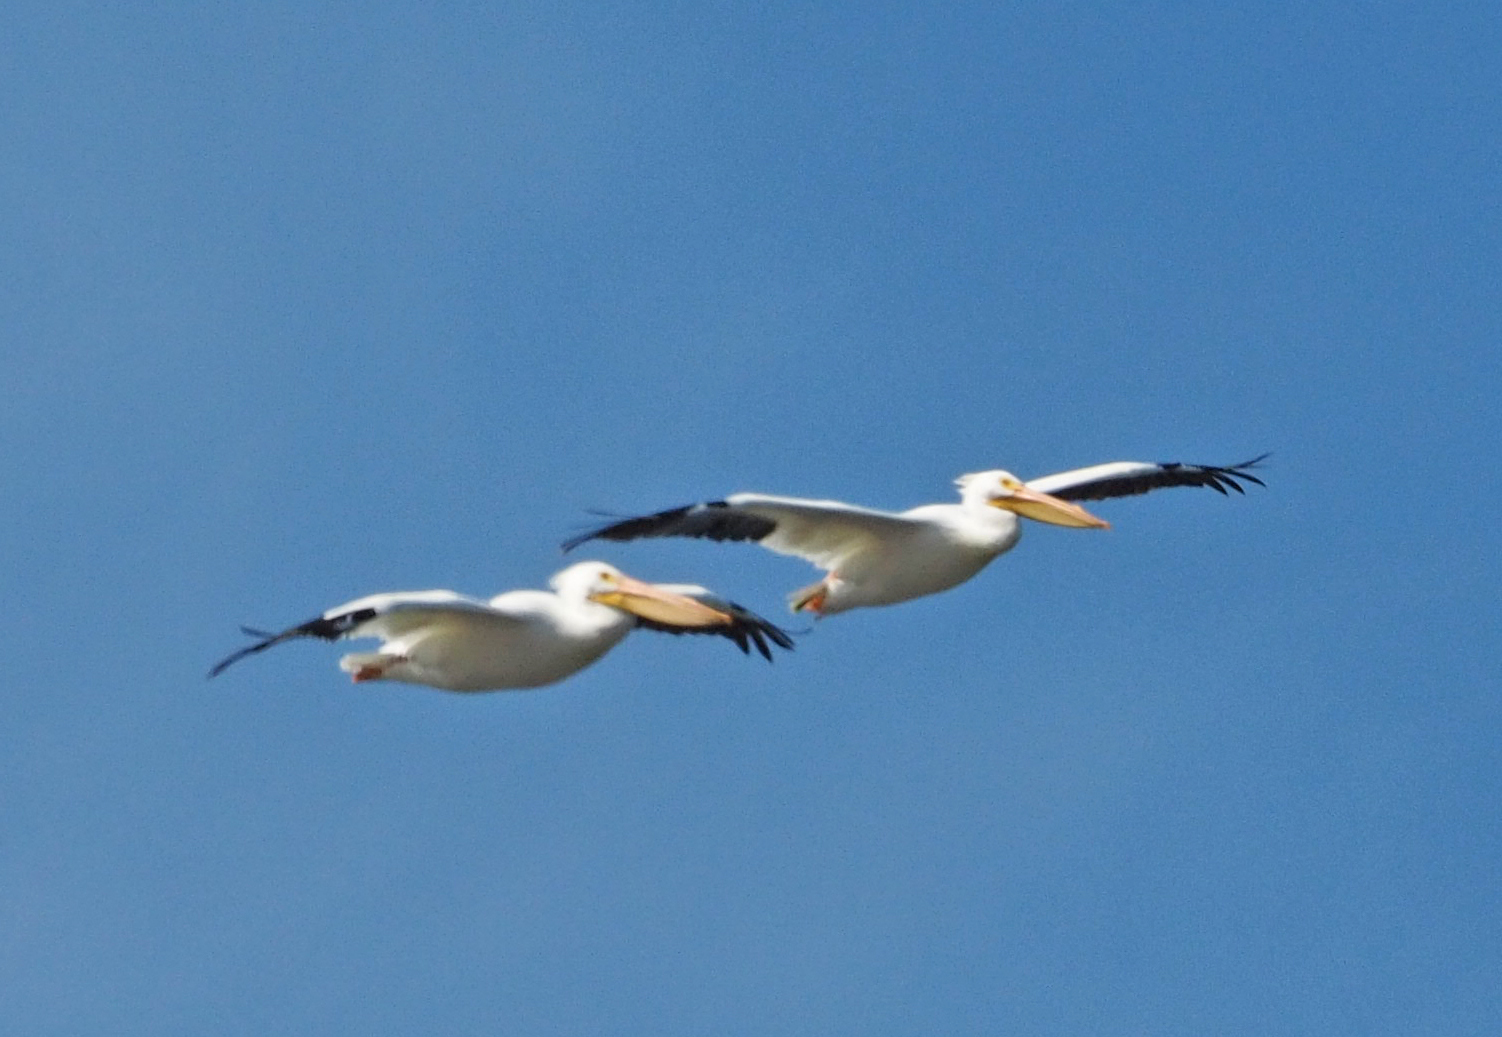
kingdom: Animalia
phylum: Chordata
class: Aves
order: Pelecaniformes
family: Pelecanidae
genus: Pelecanus
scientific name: Pelecanus erythrorhynchos
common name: American white pelican
